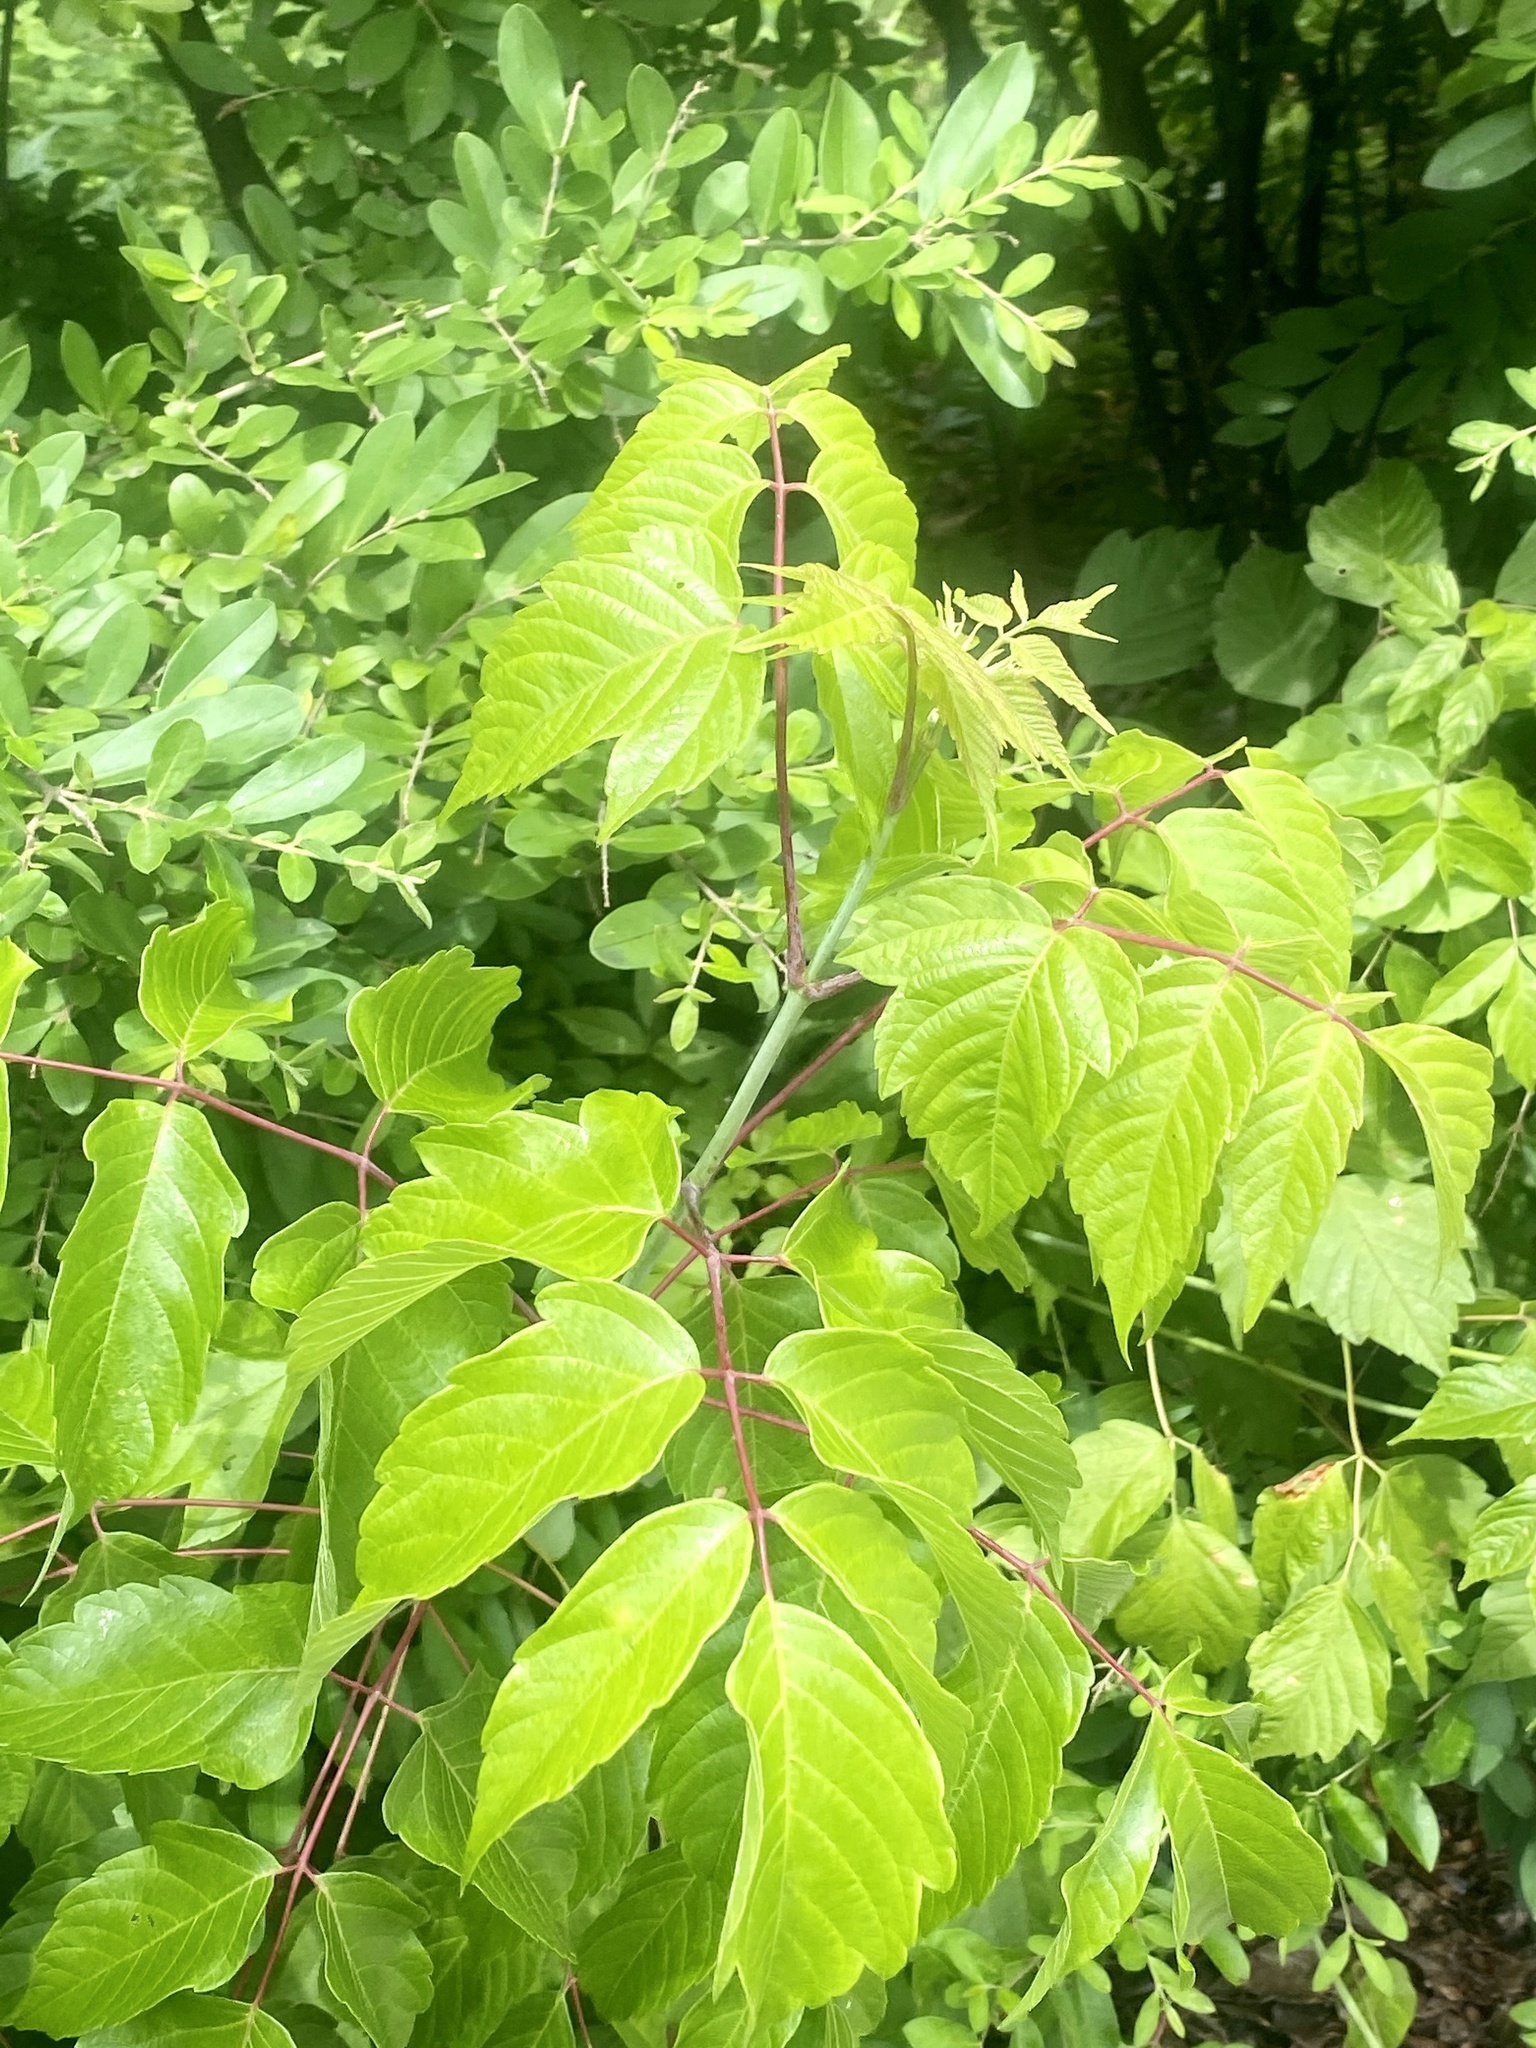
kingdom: Plantae
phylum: Tracheophyta
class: Magnoliopsida
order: Sapindales
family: Sapindaceae
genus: Acer
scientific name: Acer negundo
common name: Ashleaf maple
